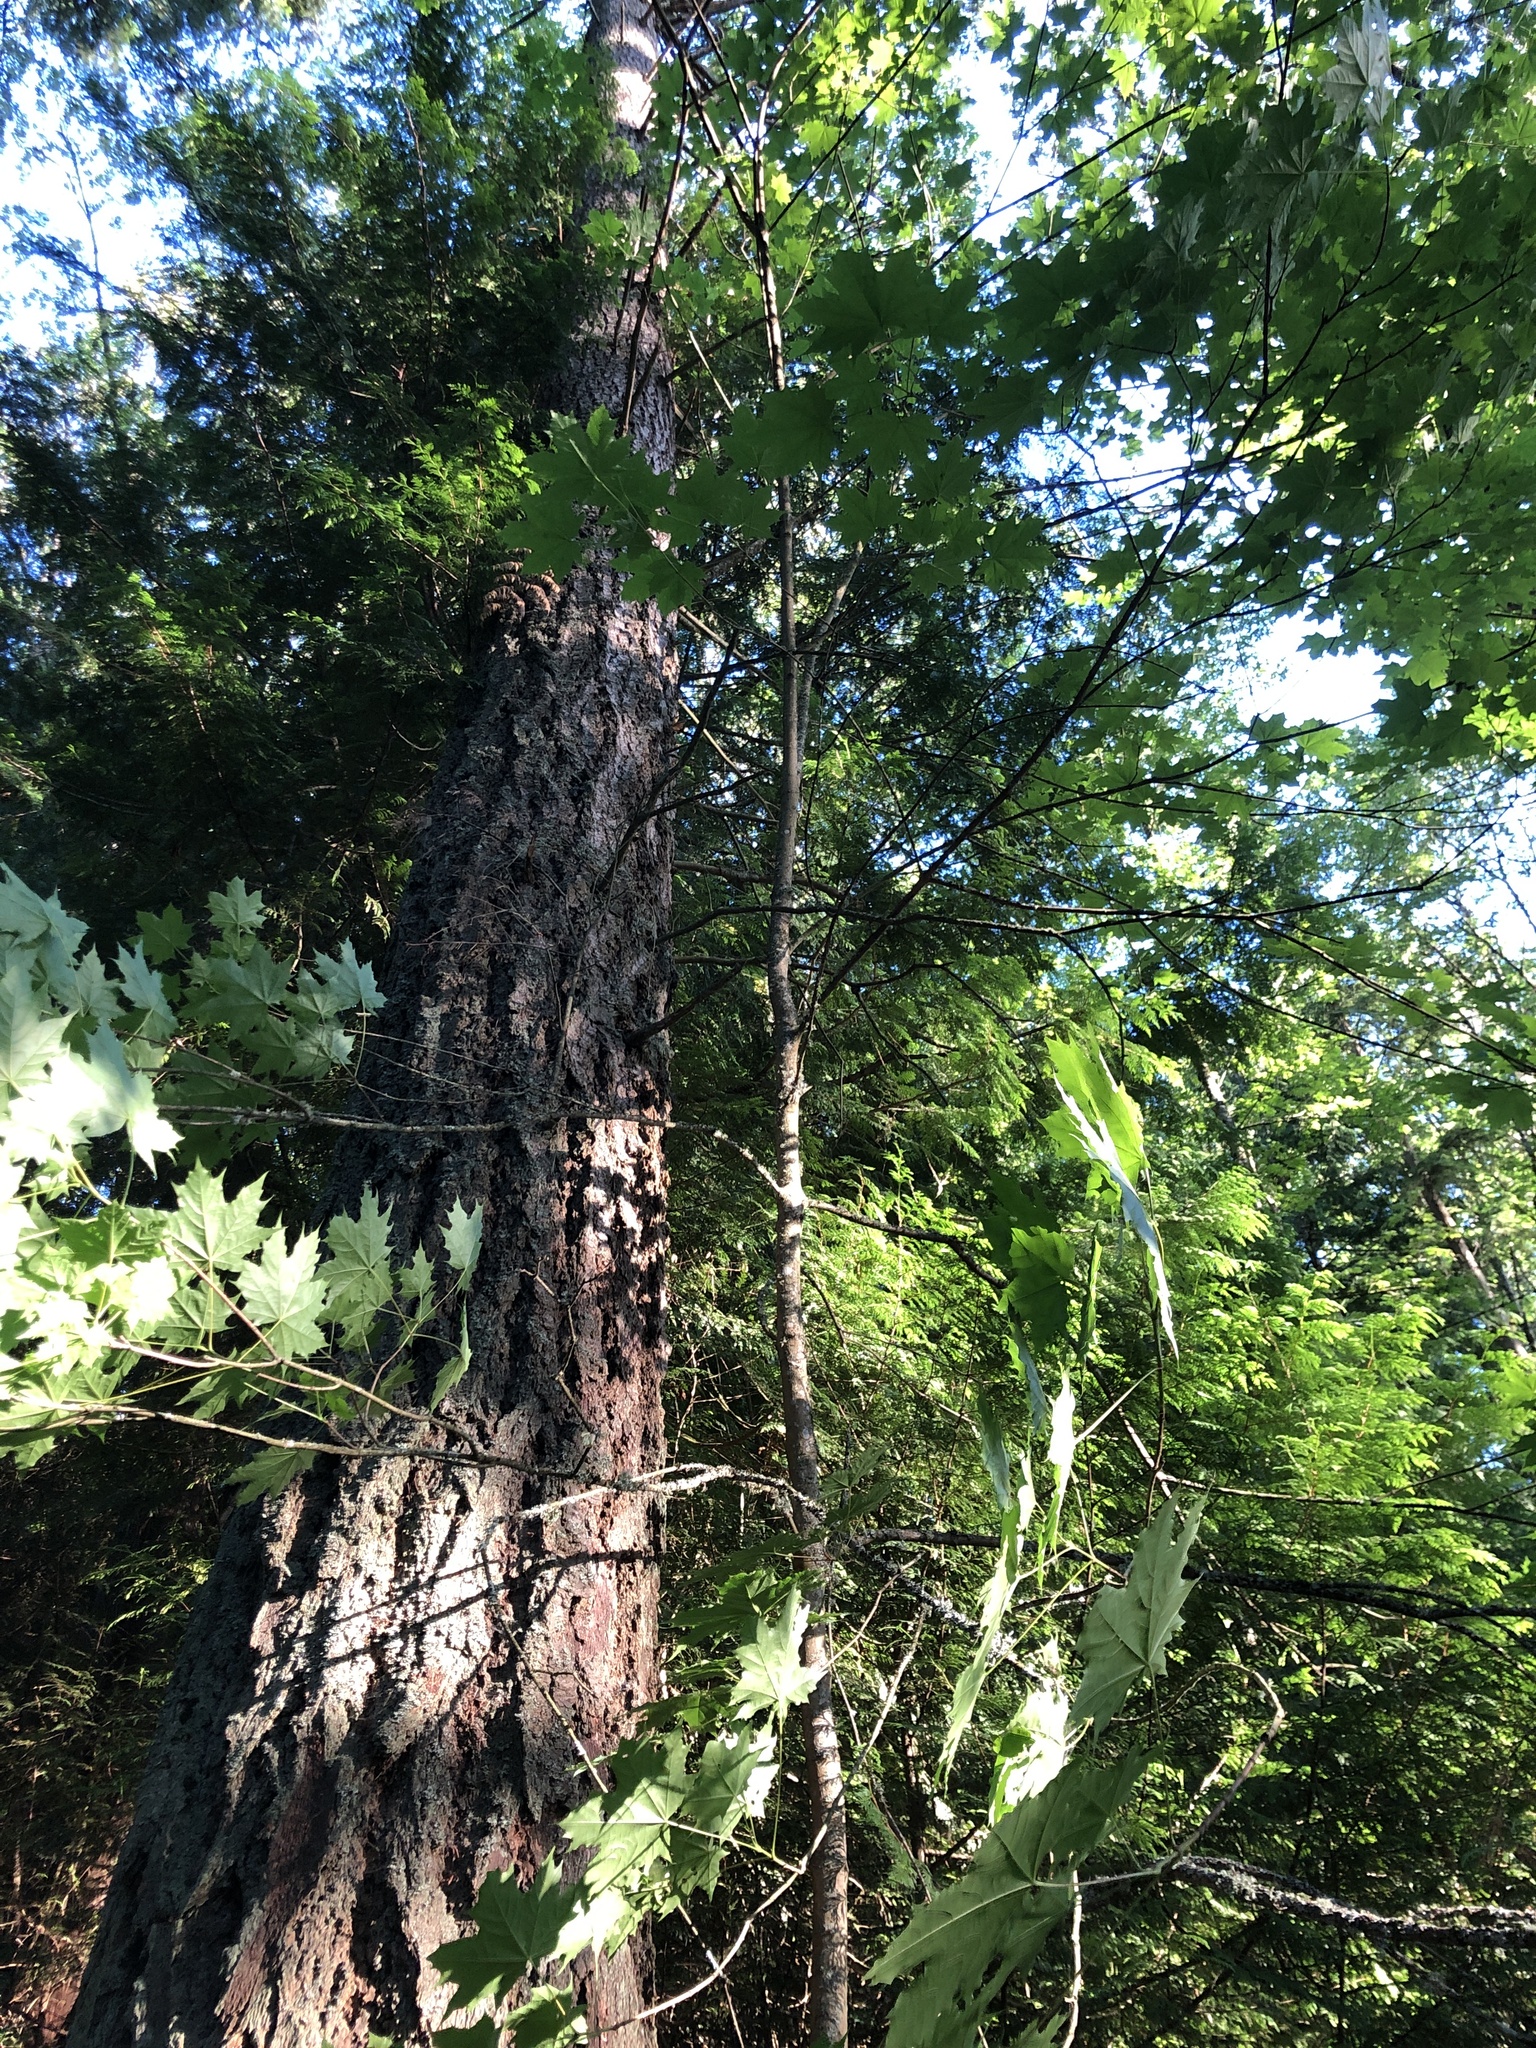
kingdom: Plantae
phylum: Tracheophyta
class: Magnoliopsida
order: Sapindales
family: Sapindaceae
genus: Acer
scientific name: Acer platanoides
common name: Norway maple
